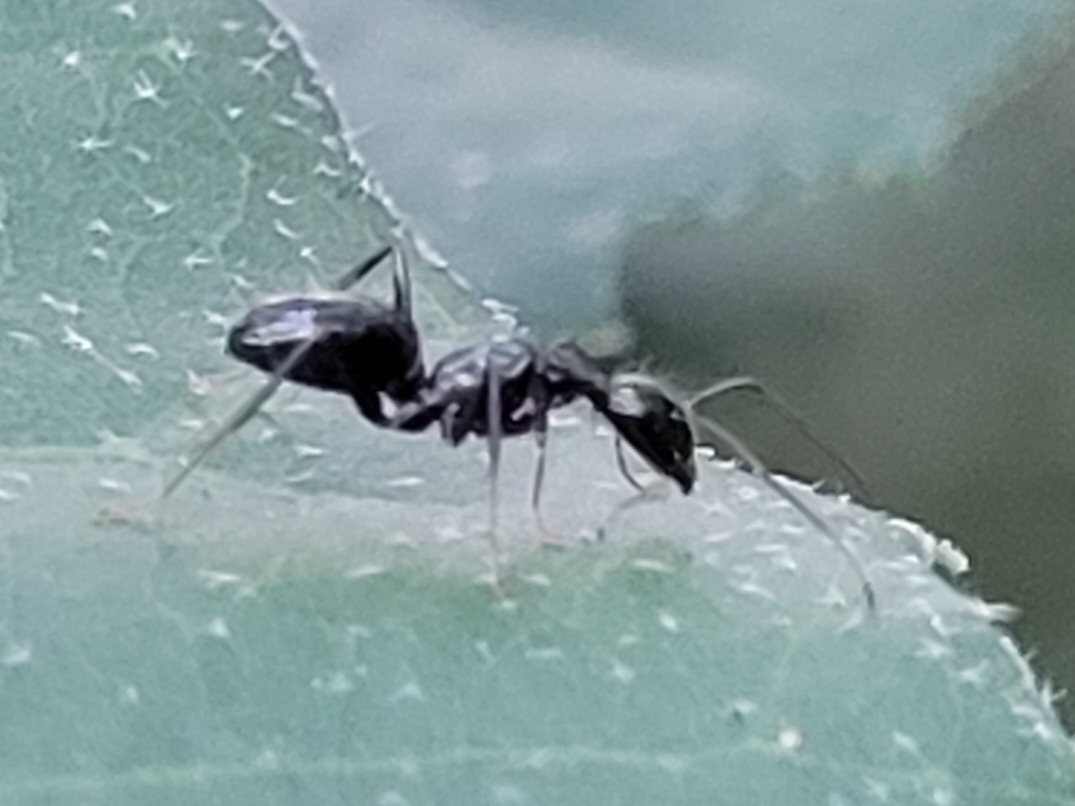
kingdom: Animalia
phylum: Arthropoda
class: Insecta
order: Hymenoptera
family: Formicidae
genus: Camponotus
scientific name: Camponotus aethiops
